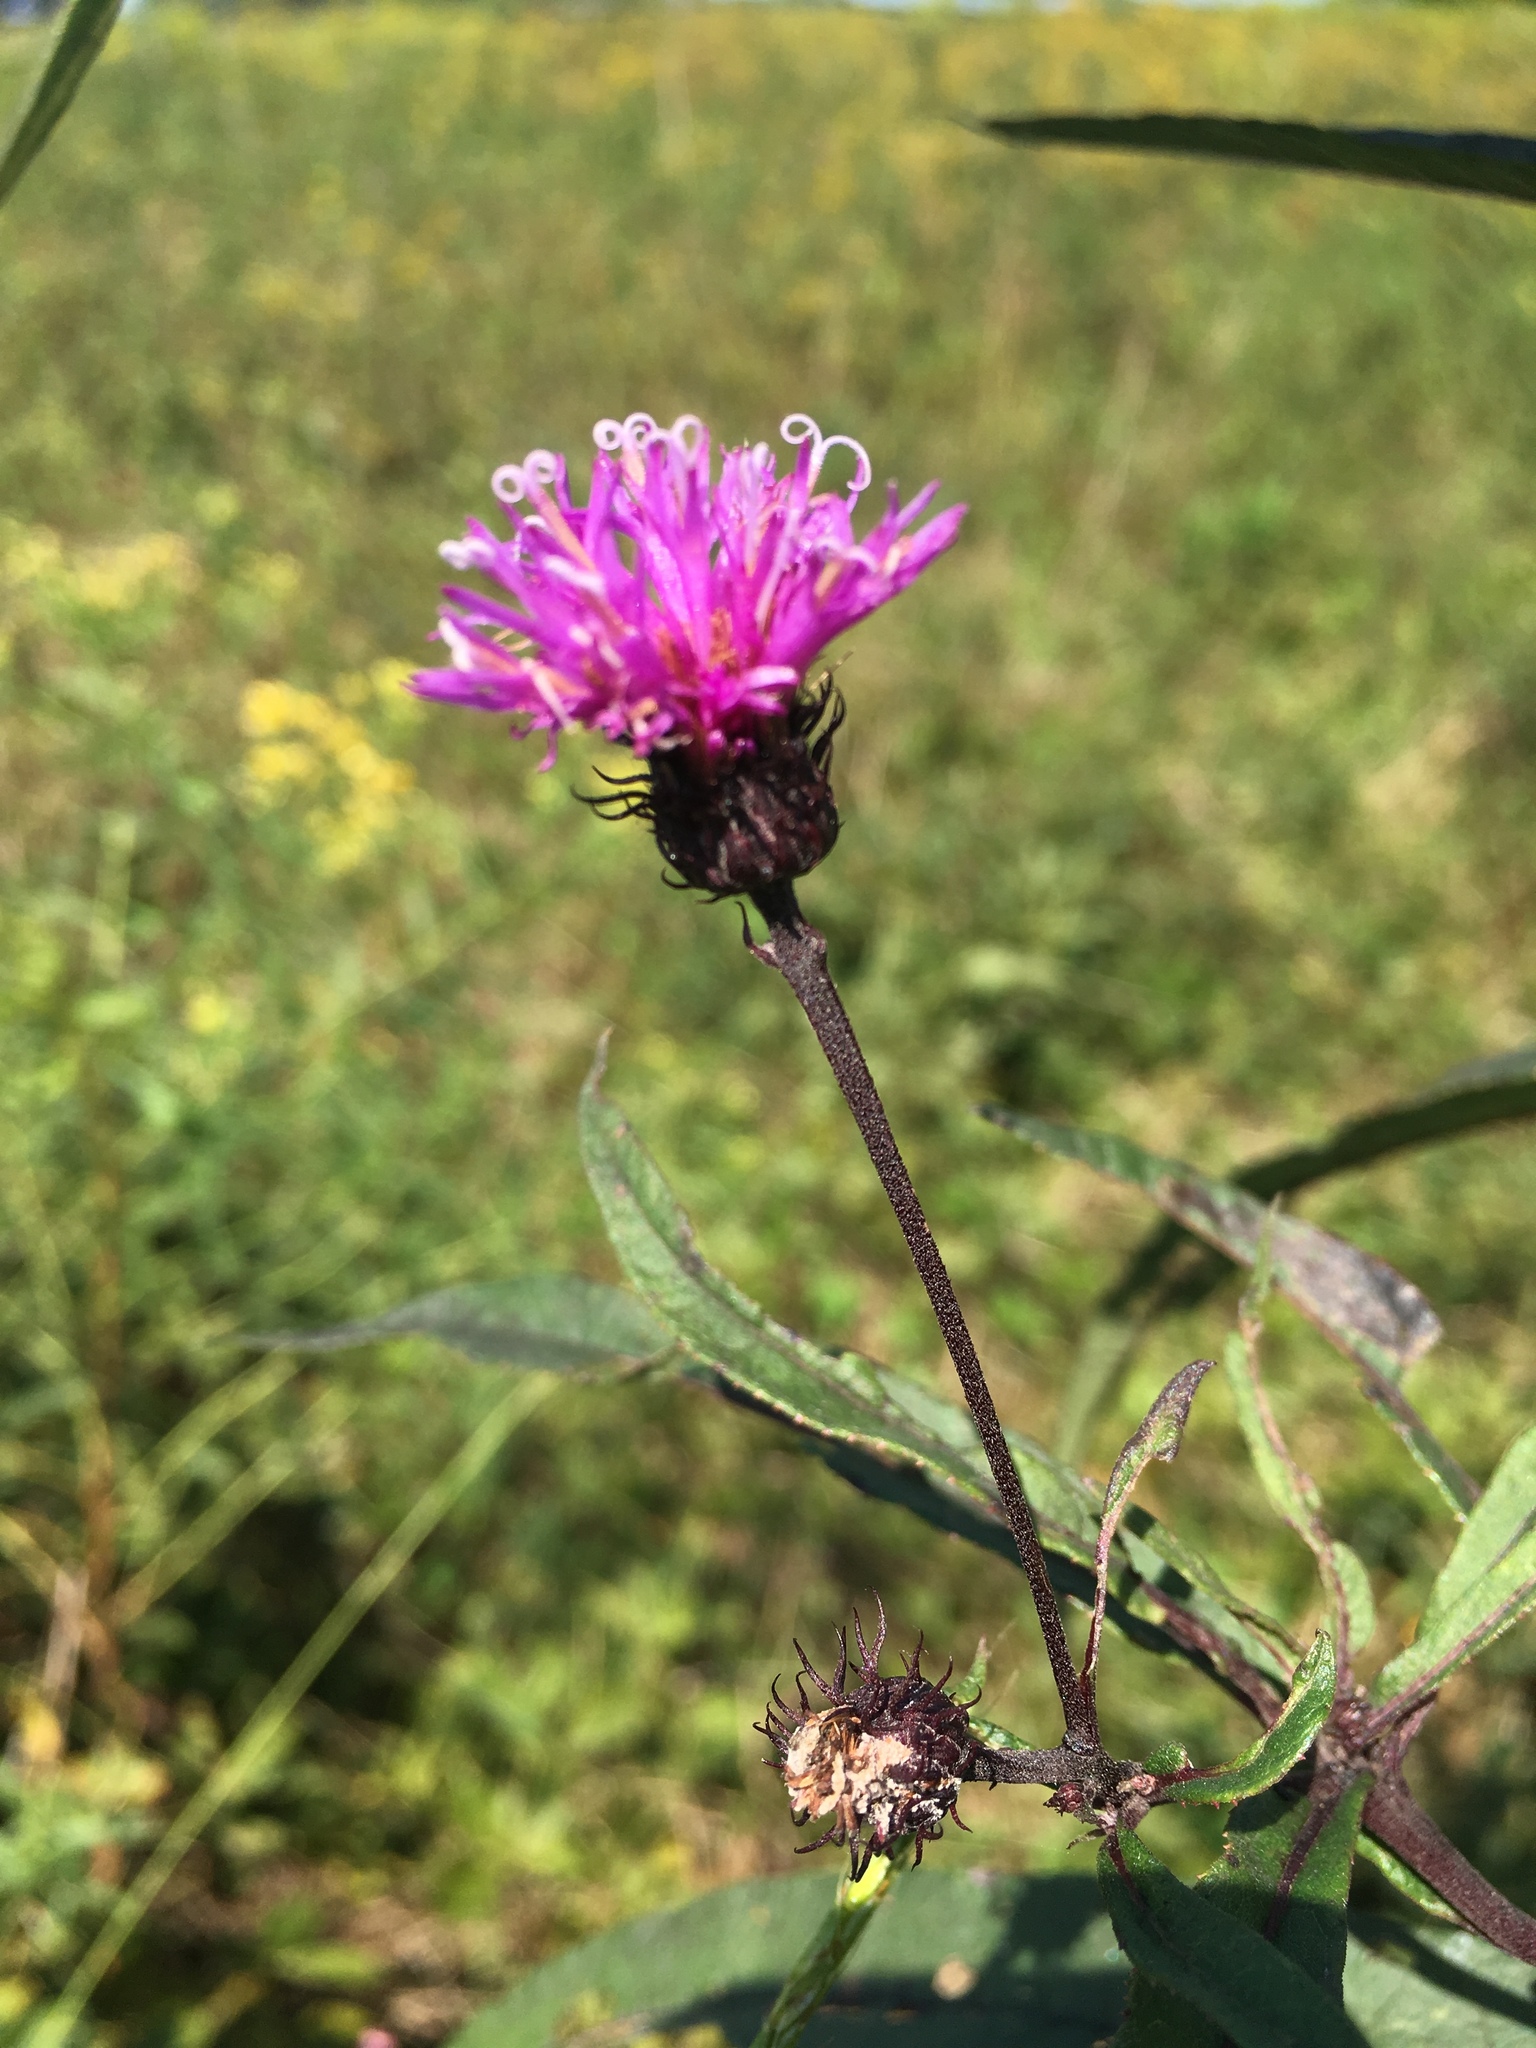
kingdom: Plantae
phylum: Tracheophyta
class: Magnoliopsida
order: Asterales
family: Asteraceae
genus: Vernonia
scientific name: Vernonia noveboracensis
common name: New york ironweed
